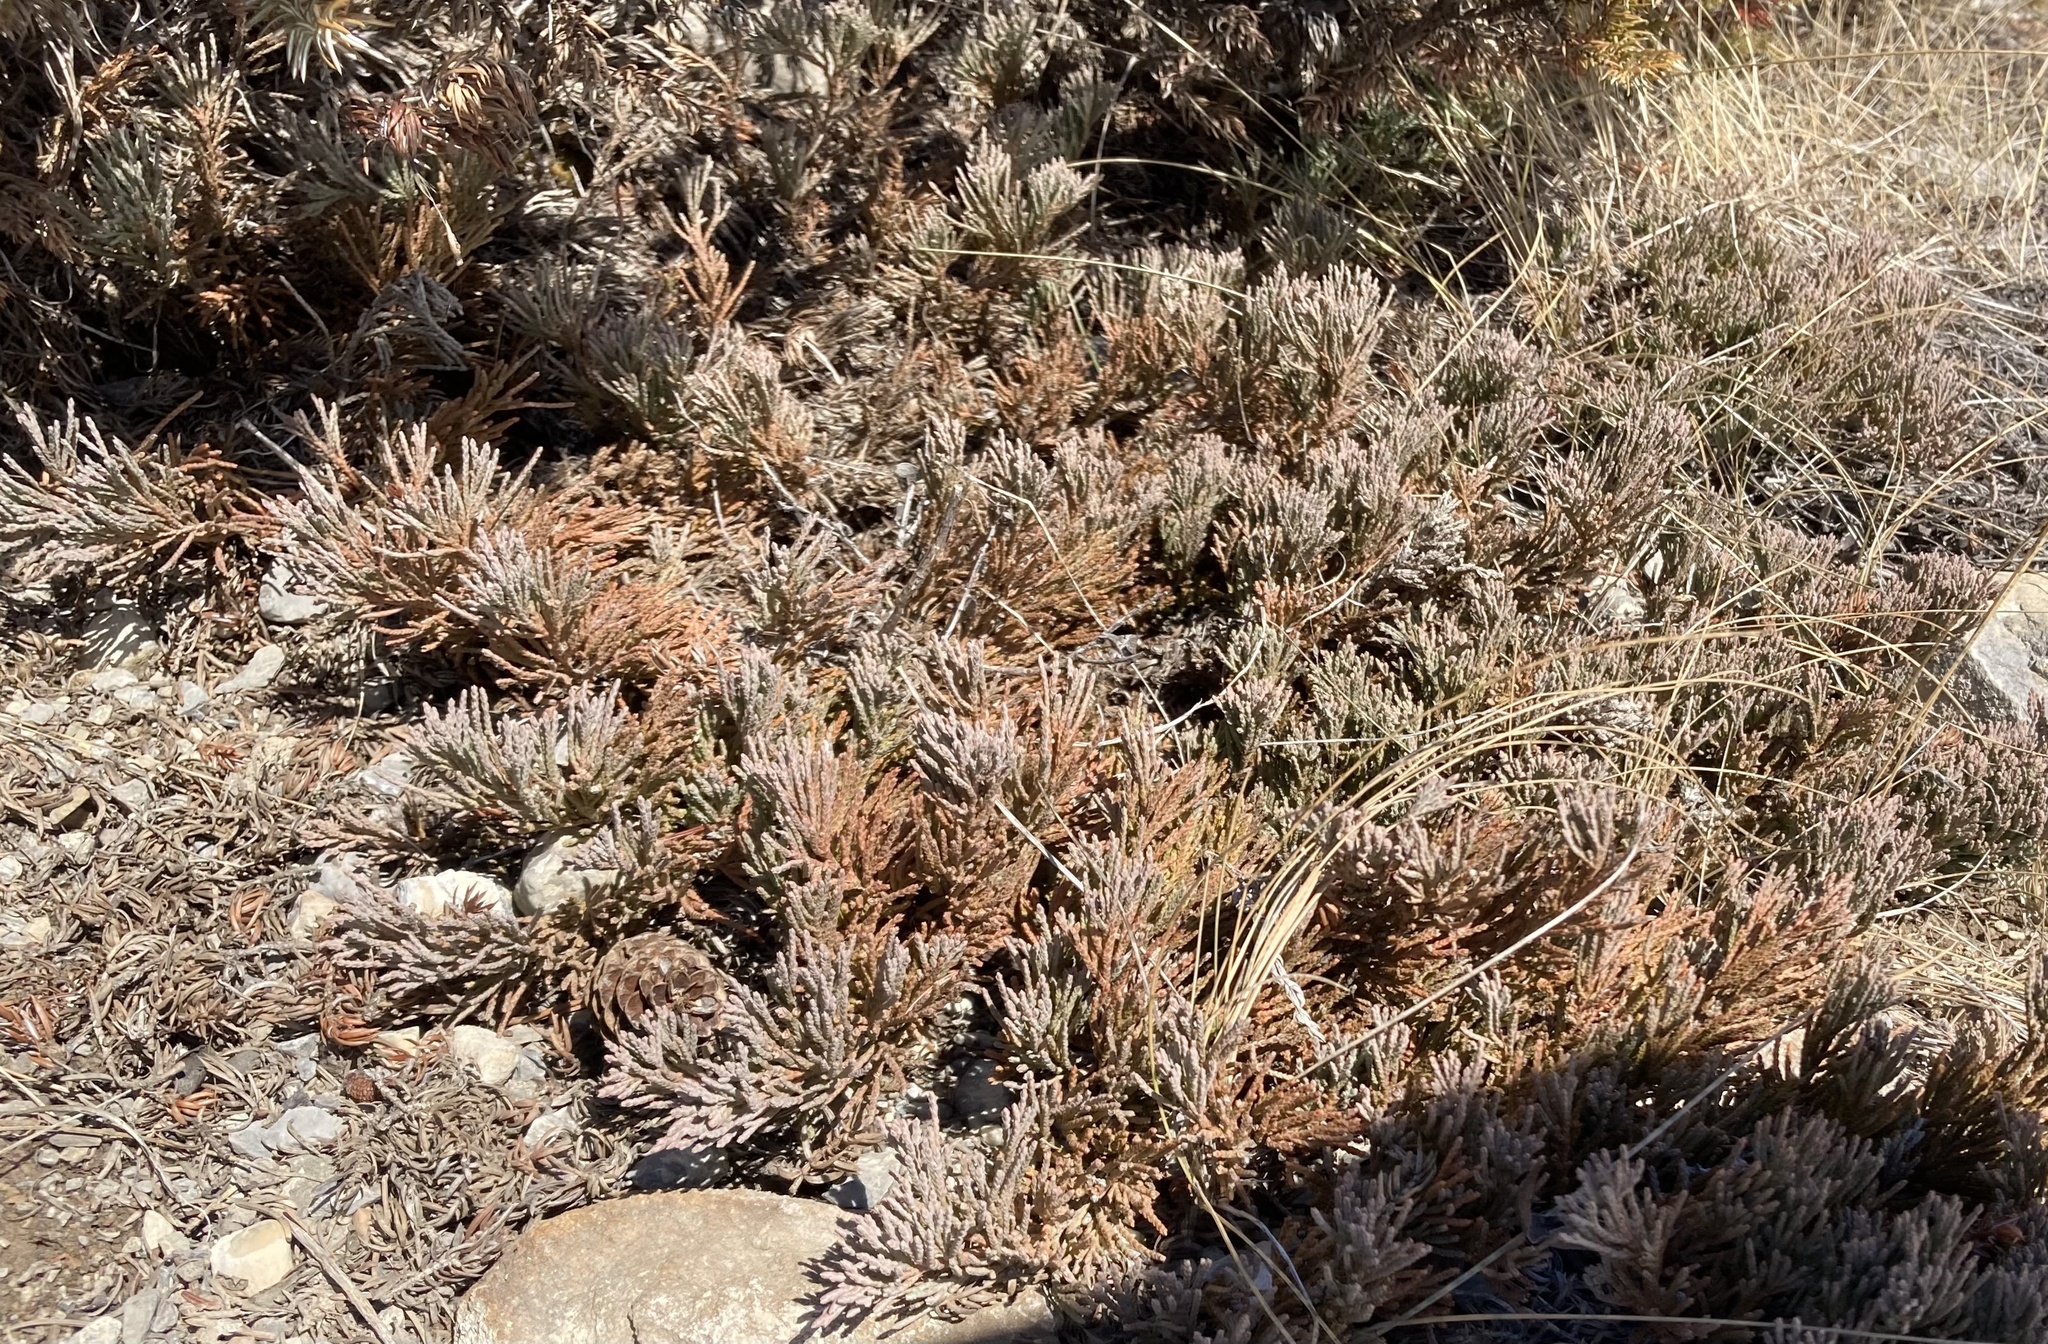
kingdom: Plantae
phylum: Tracheophyta
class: Pinopsida
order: Pinales
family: Cupressaceae
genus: Juniperus
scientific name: Juniperus horizontalis
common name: Creeping juniper
